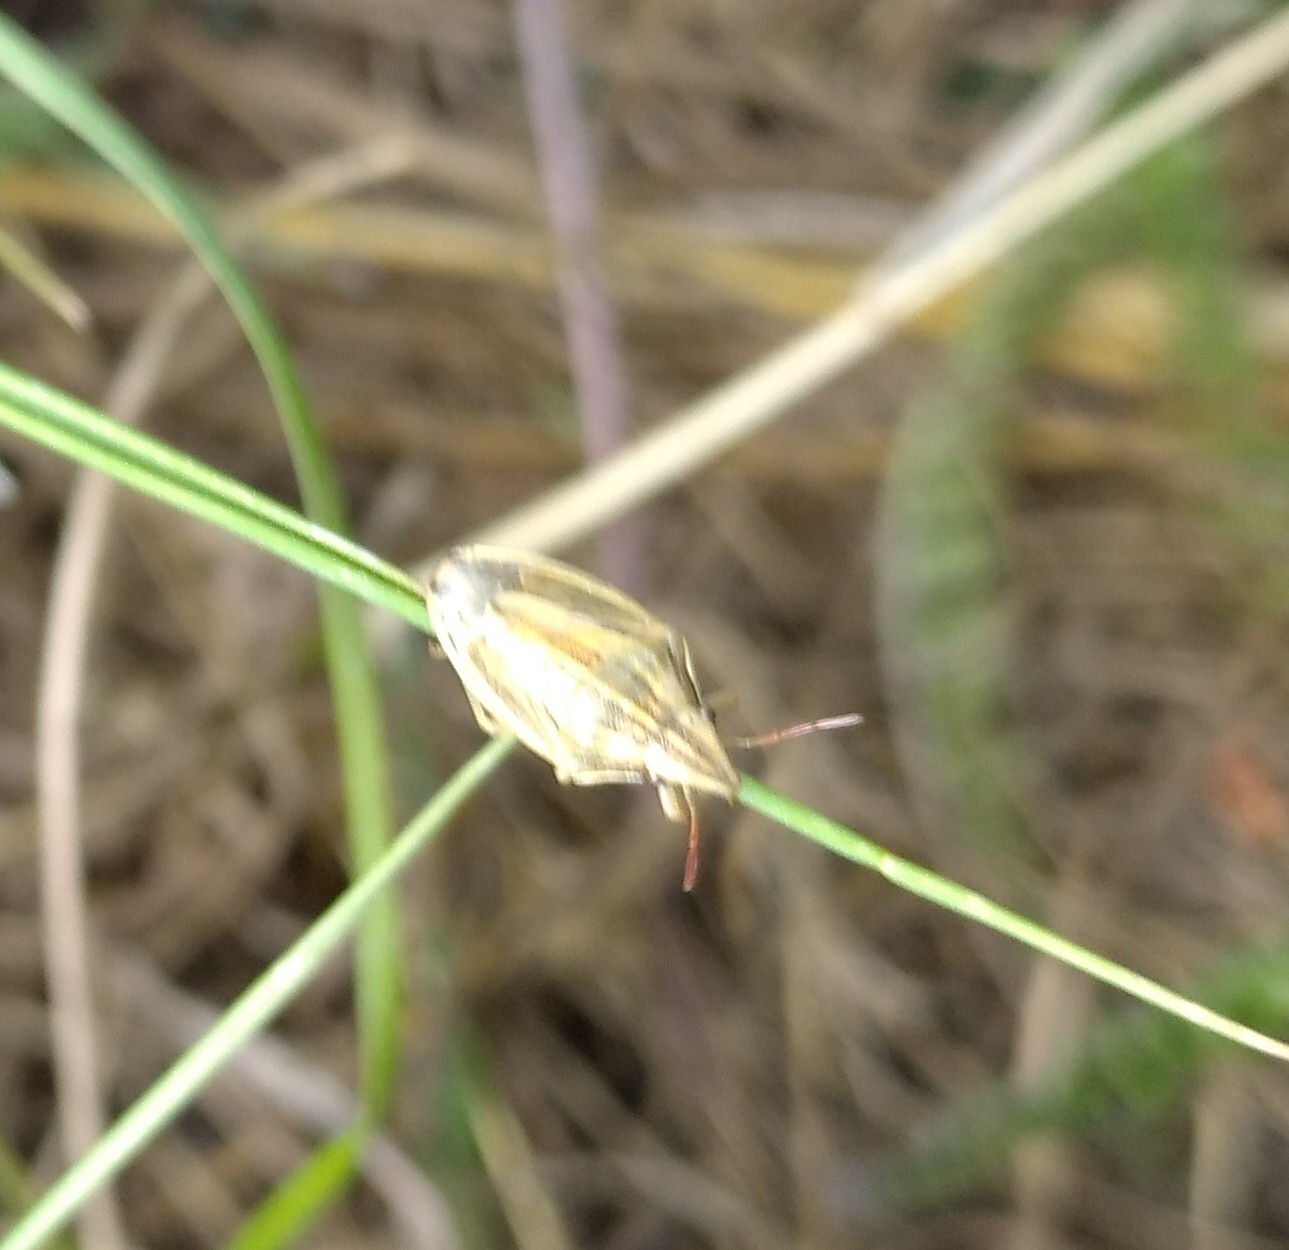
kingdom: Animalia
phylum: Arthropoda
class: Insecta
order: Hemiptera
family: Pentatomidae
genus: Aelia
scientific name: Aelia acuminata
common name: Bishop's mitre
